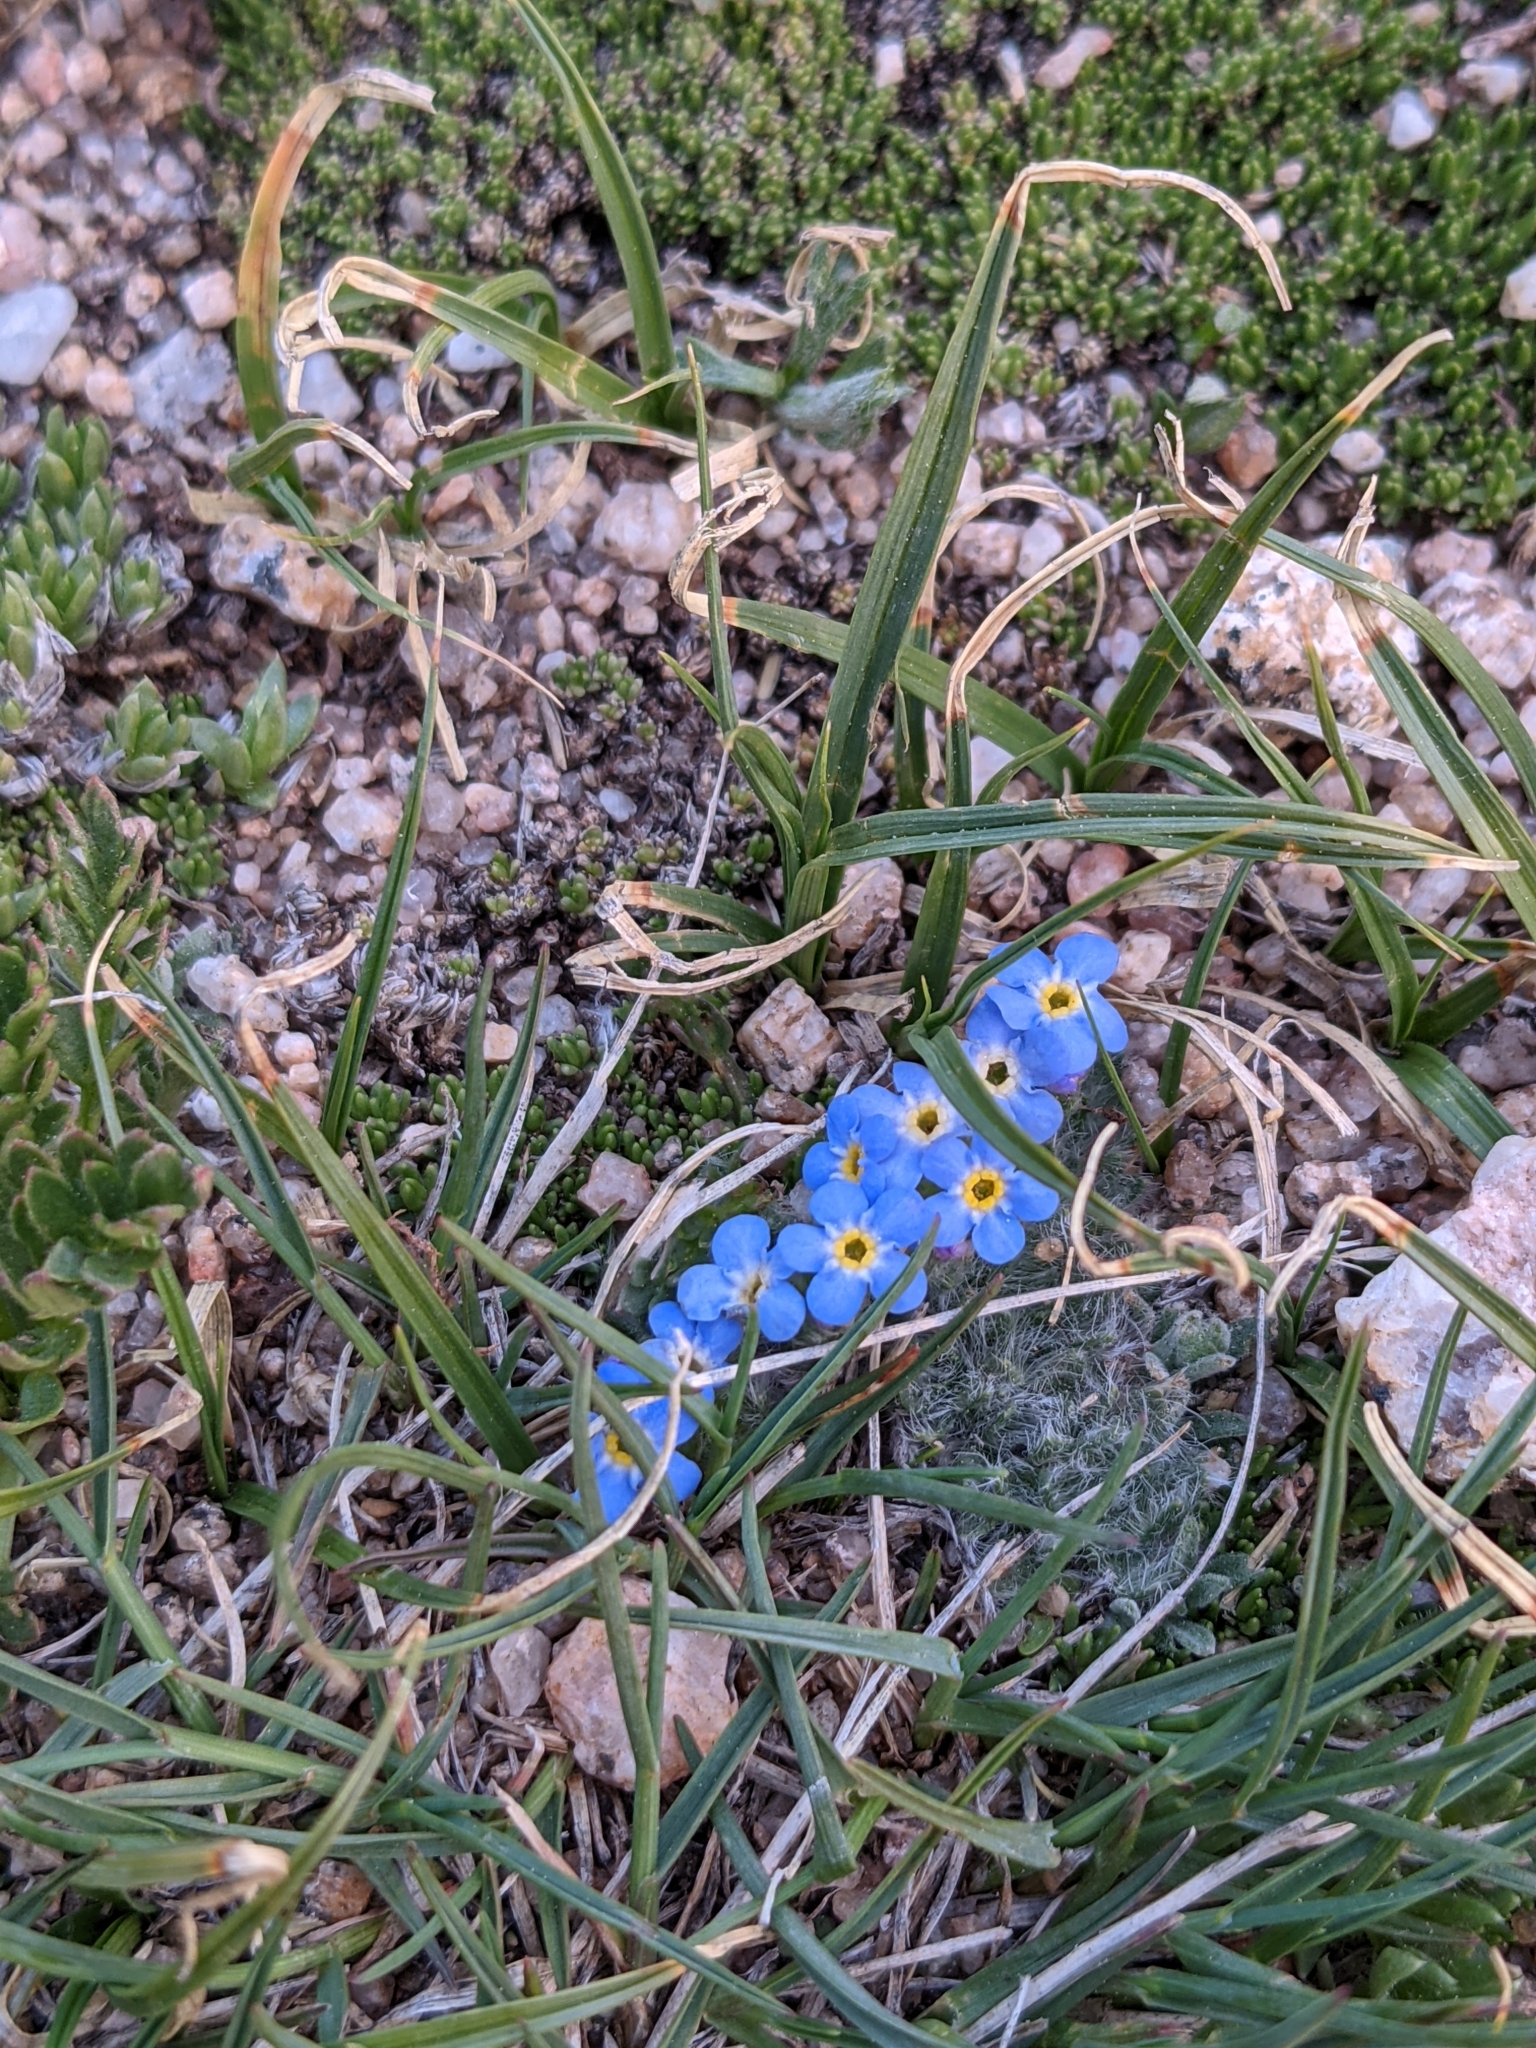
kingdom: Plantae
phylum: Tracheophyta
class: Magnoliopsida
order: Boraginales
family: Boraginaceae
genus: Eritrichium
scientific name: Eritrichium argenteum
